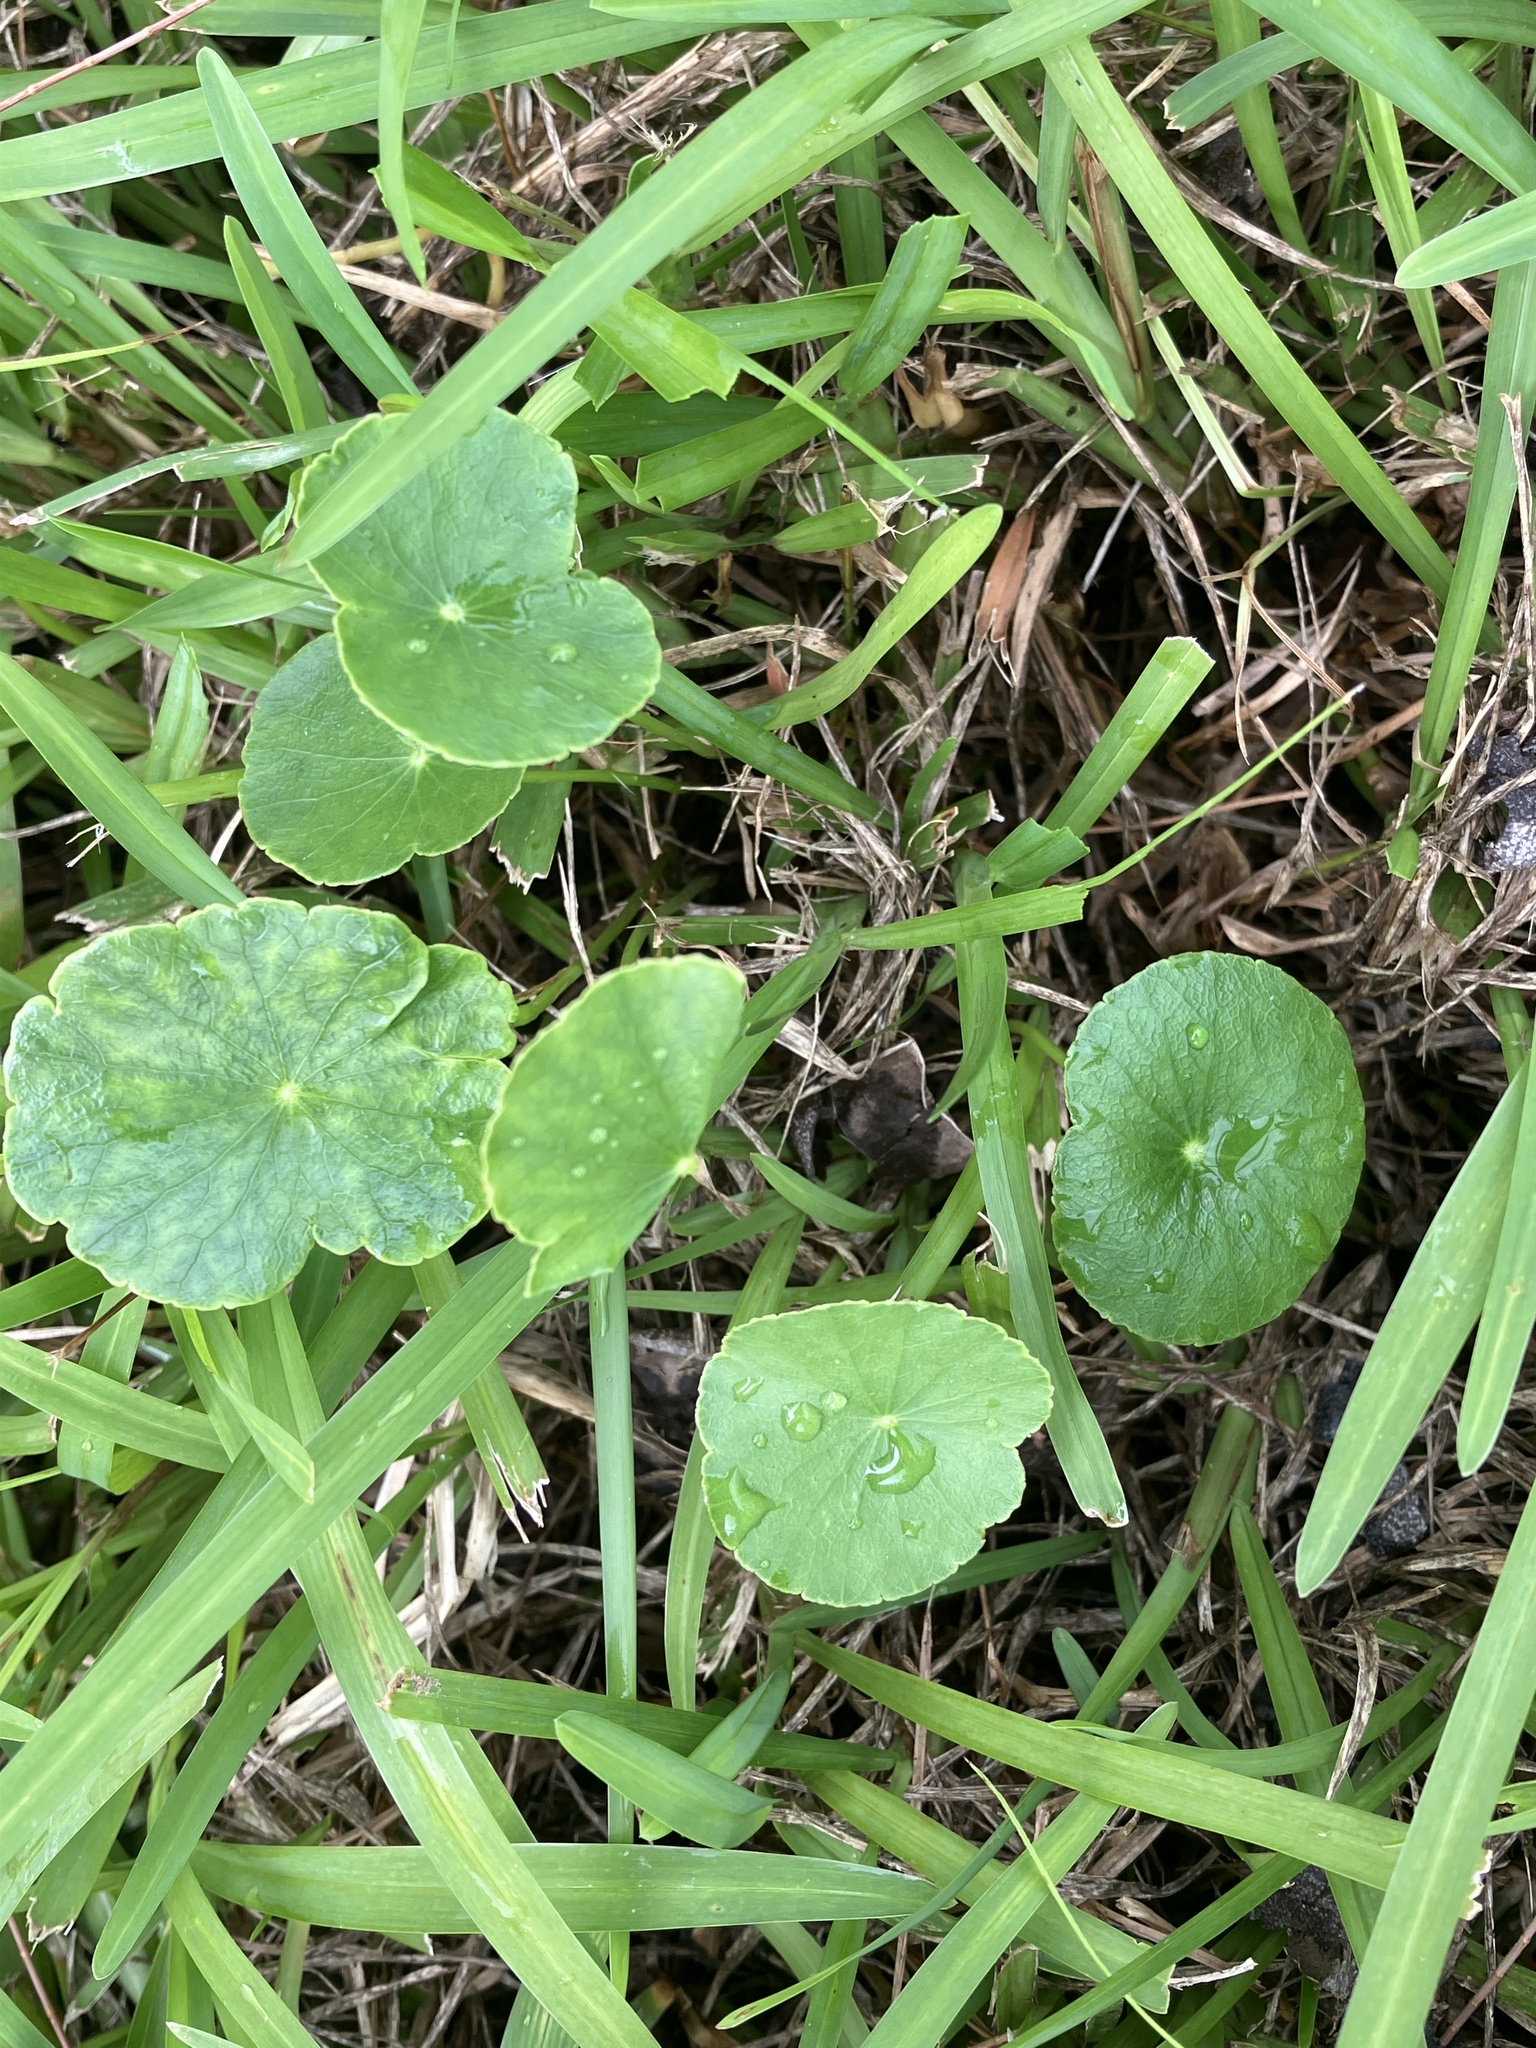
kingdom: Plantae
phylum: Tracheophyta
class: Magnoliopsida
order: Apiales
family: Araliaceae
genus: Hydrocotyle
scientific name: Hydrocotyle bonariensis
